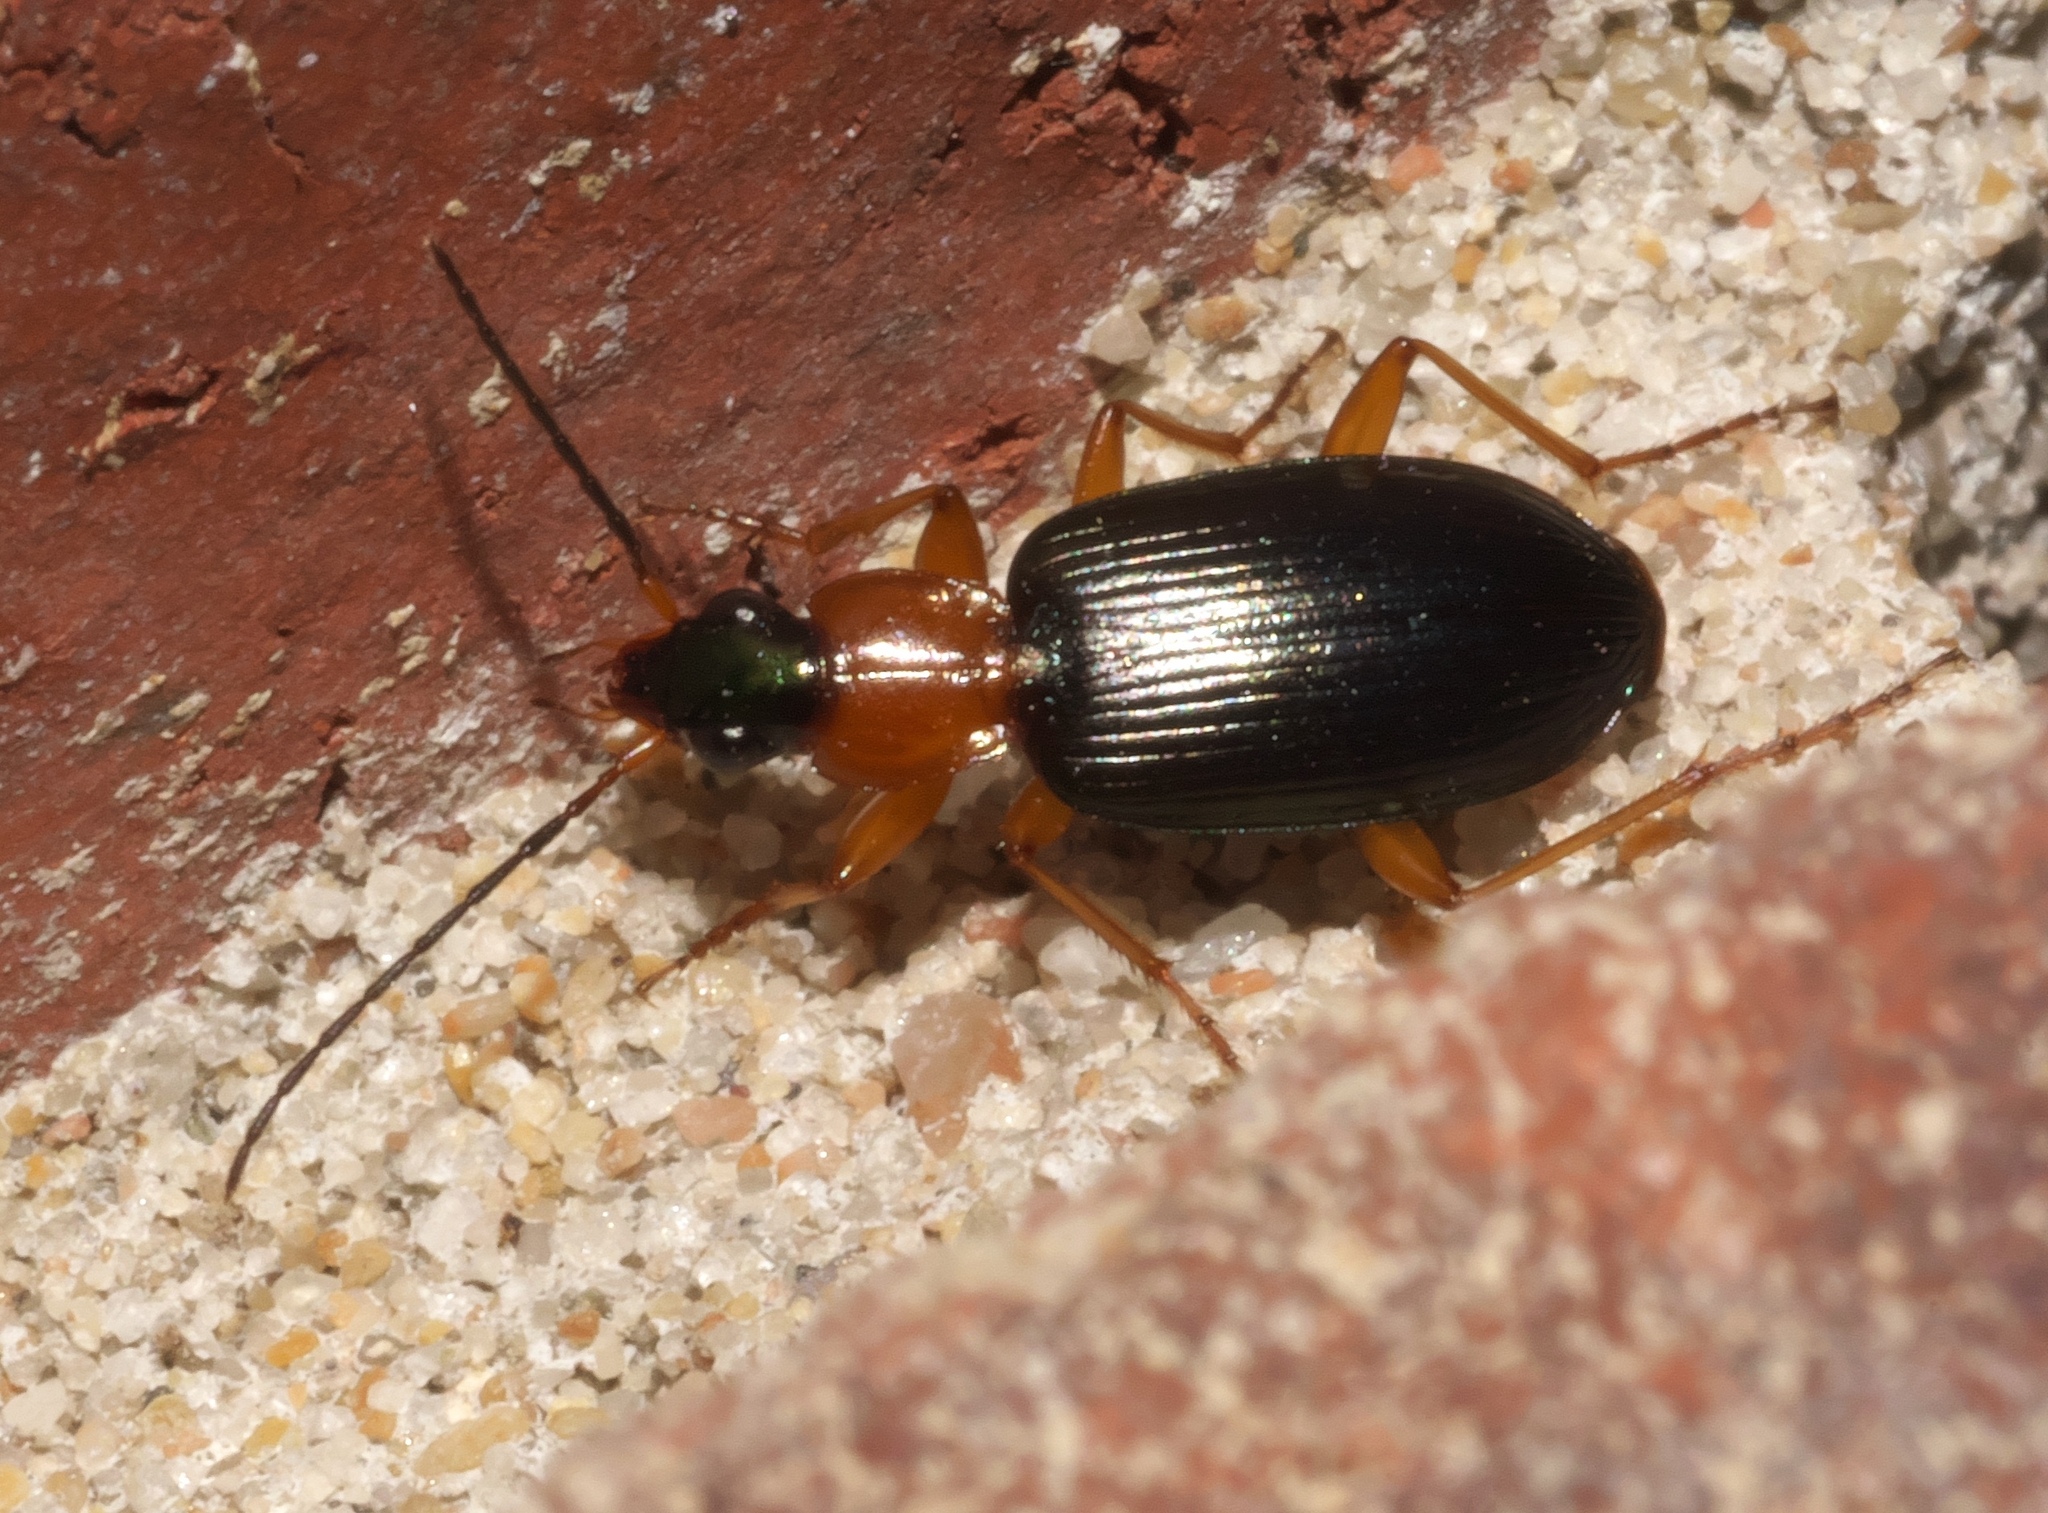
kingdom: Animalia
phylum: Arthropoda
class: Insecta
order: Coleoptera
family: Carabidae
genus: Agonum
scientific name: Agonum decorum
